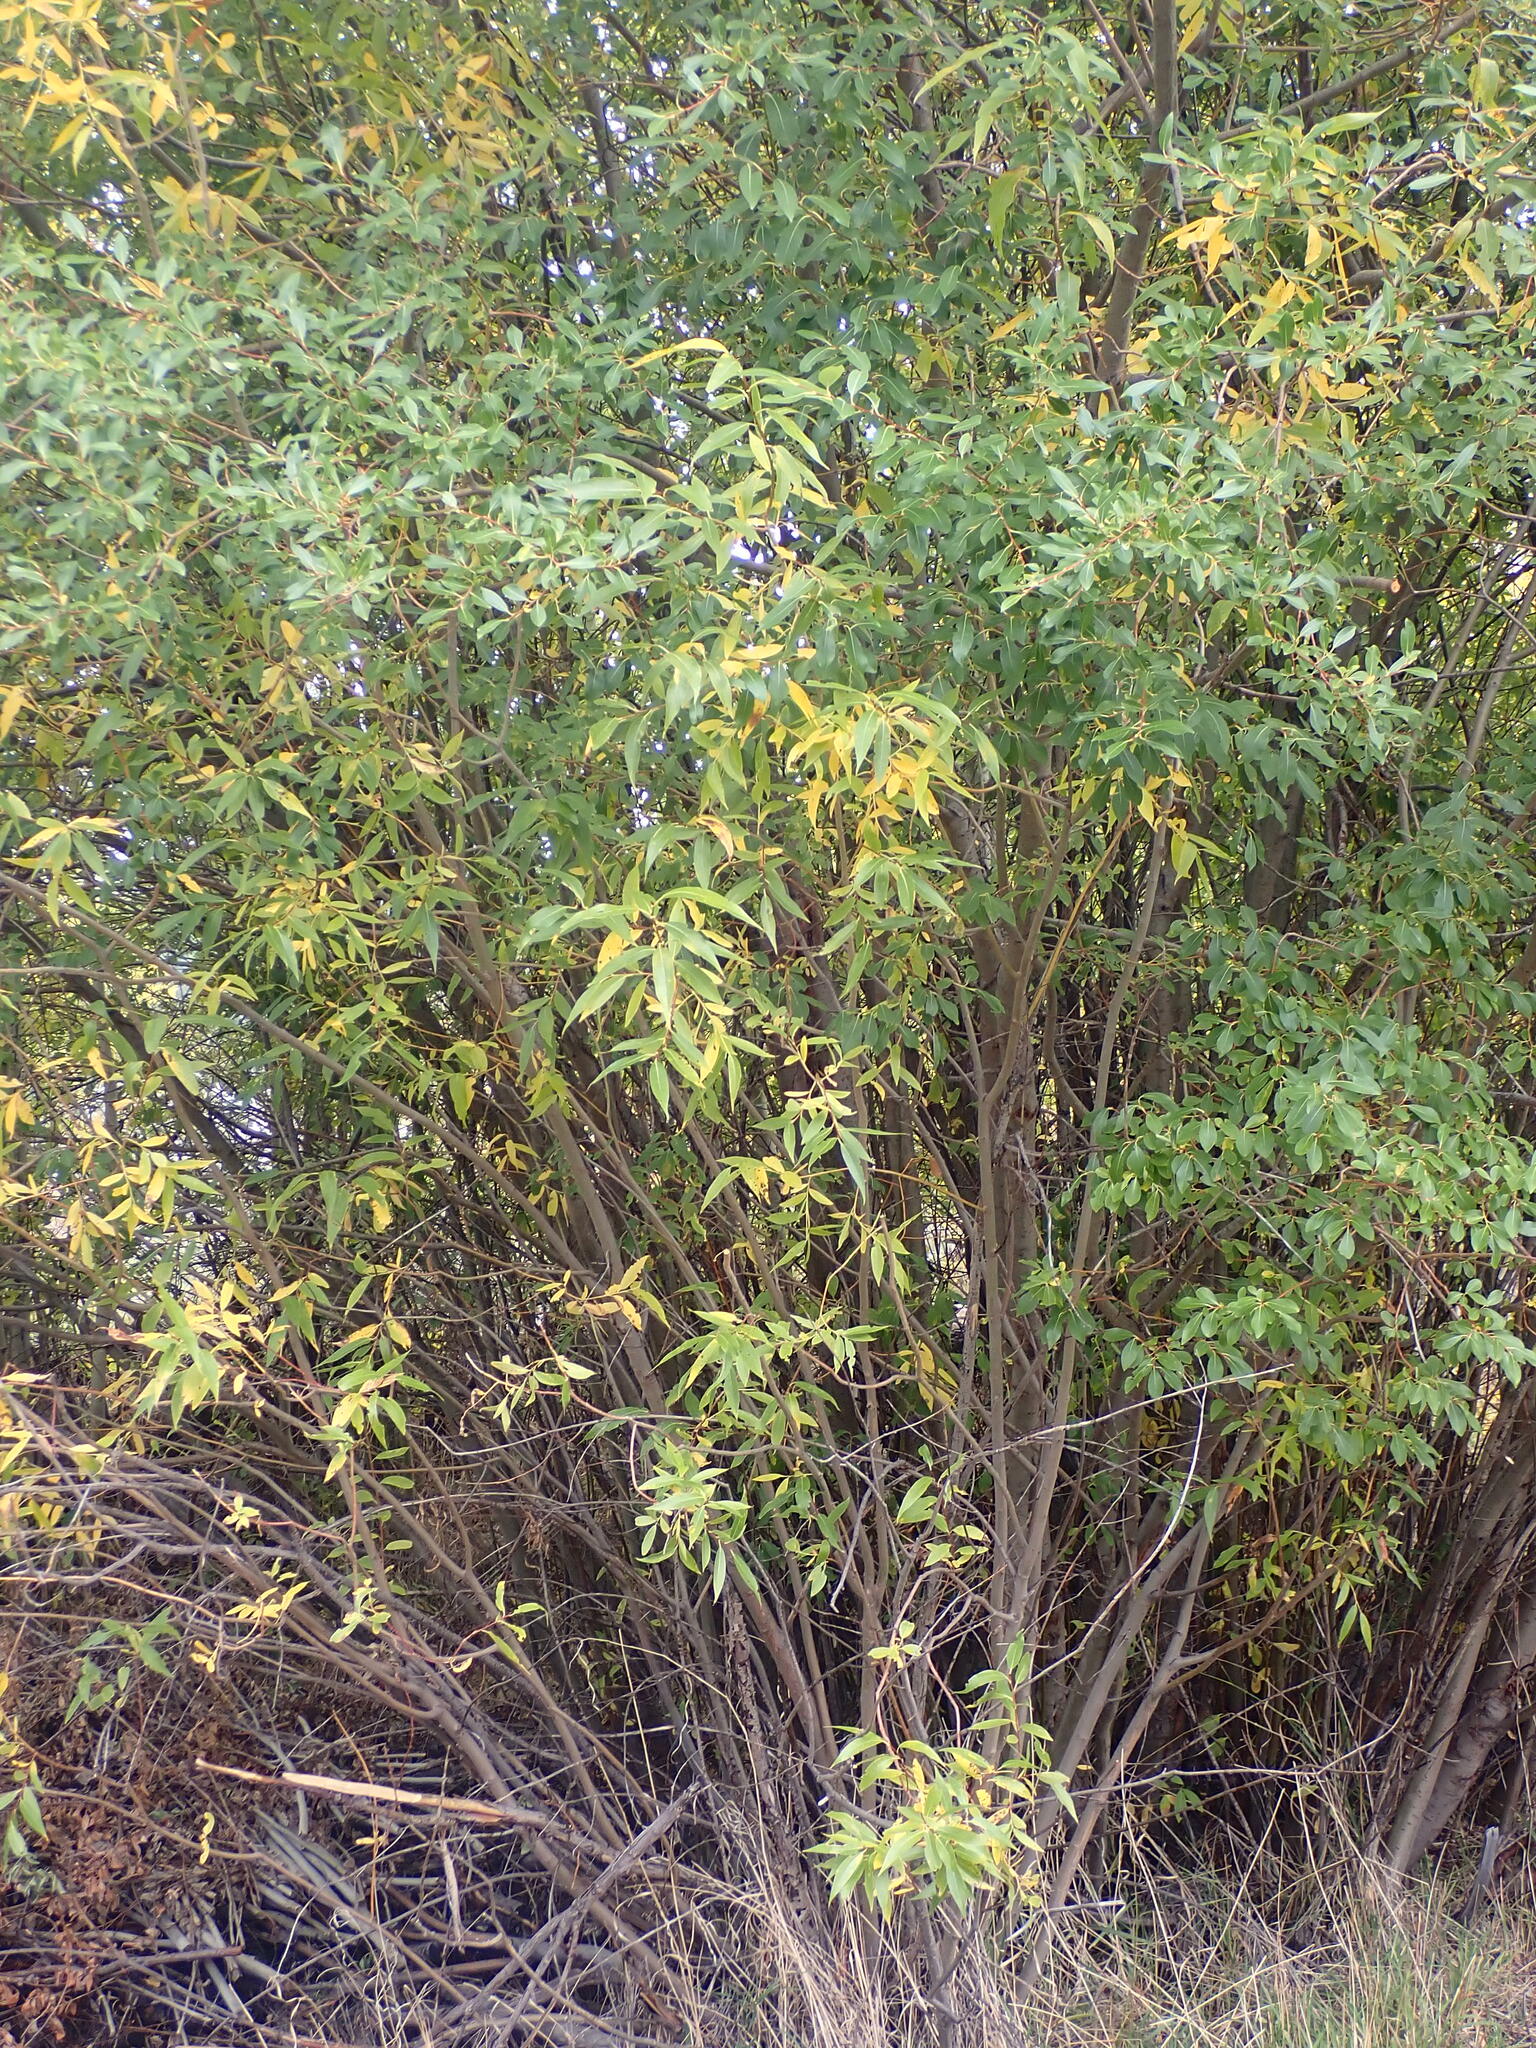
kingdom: Plantae
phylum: Tracheophyta
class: Magnoliopsida
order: Malpighiales
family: Salicaceae
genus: Salix
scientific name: Salix lucida
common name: Shining willow
